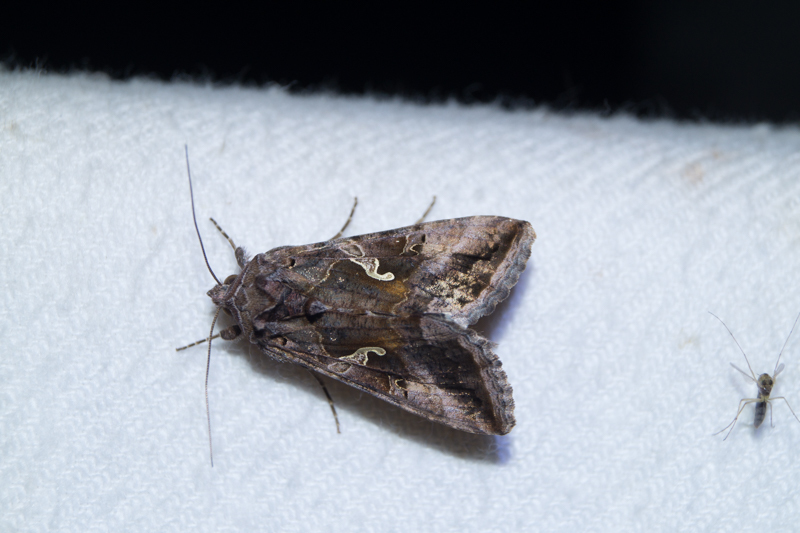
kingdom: Animalia
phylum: Arthropoda
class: Insecta
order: Lepidoptera
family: Noctuidae
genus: Autographa
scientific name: Autographa gamma
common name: Silver y
